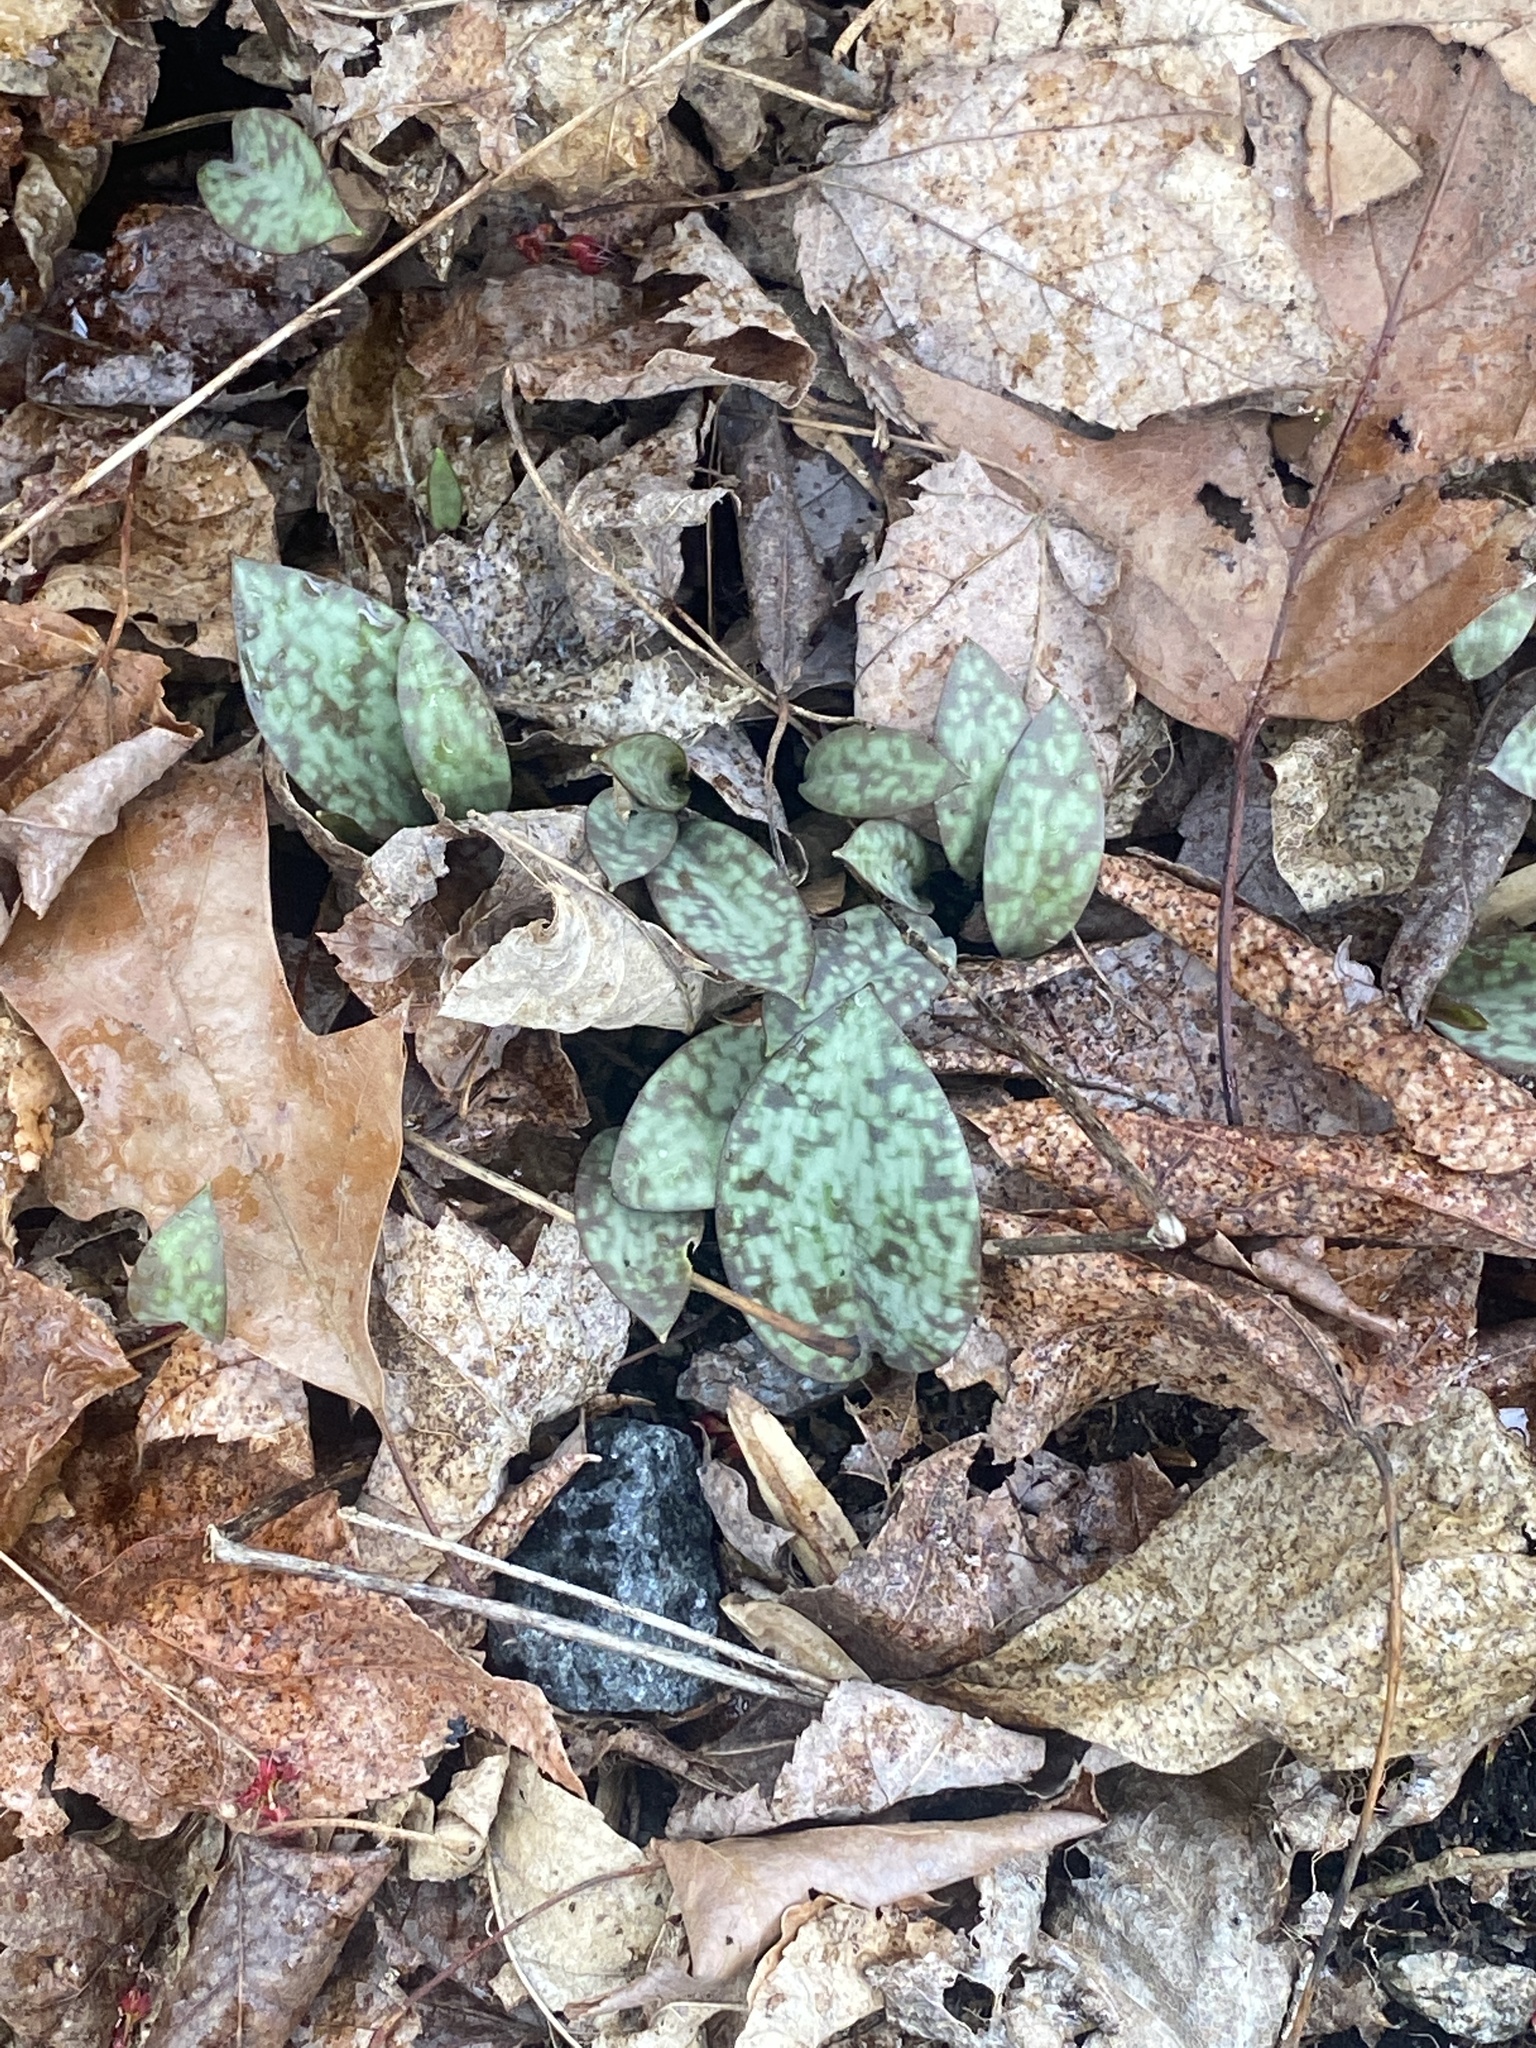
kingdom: Plantae
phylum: Tracheophyta
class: Liliopsida
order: Liliales
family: Liliaceae
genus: Erythronium
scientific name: Erythronium americanum
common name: Yellow adder's-tongue
